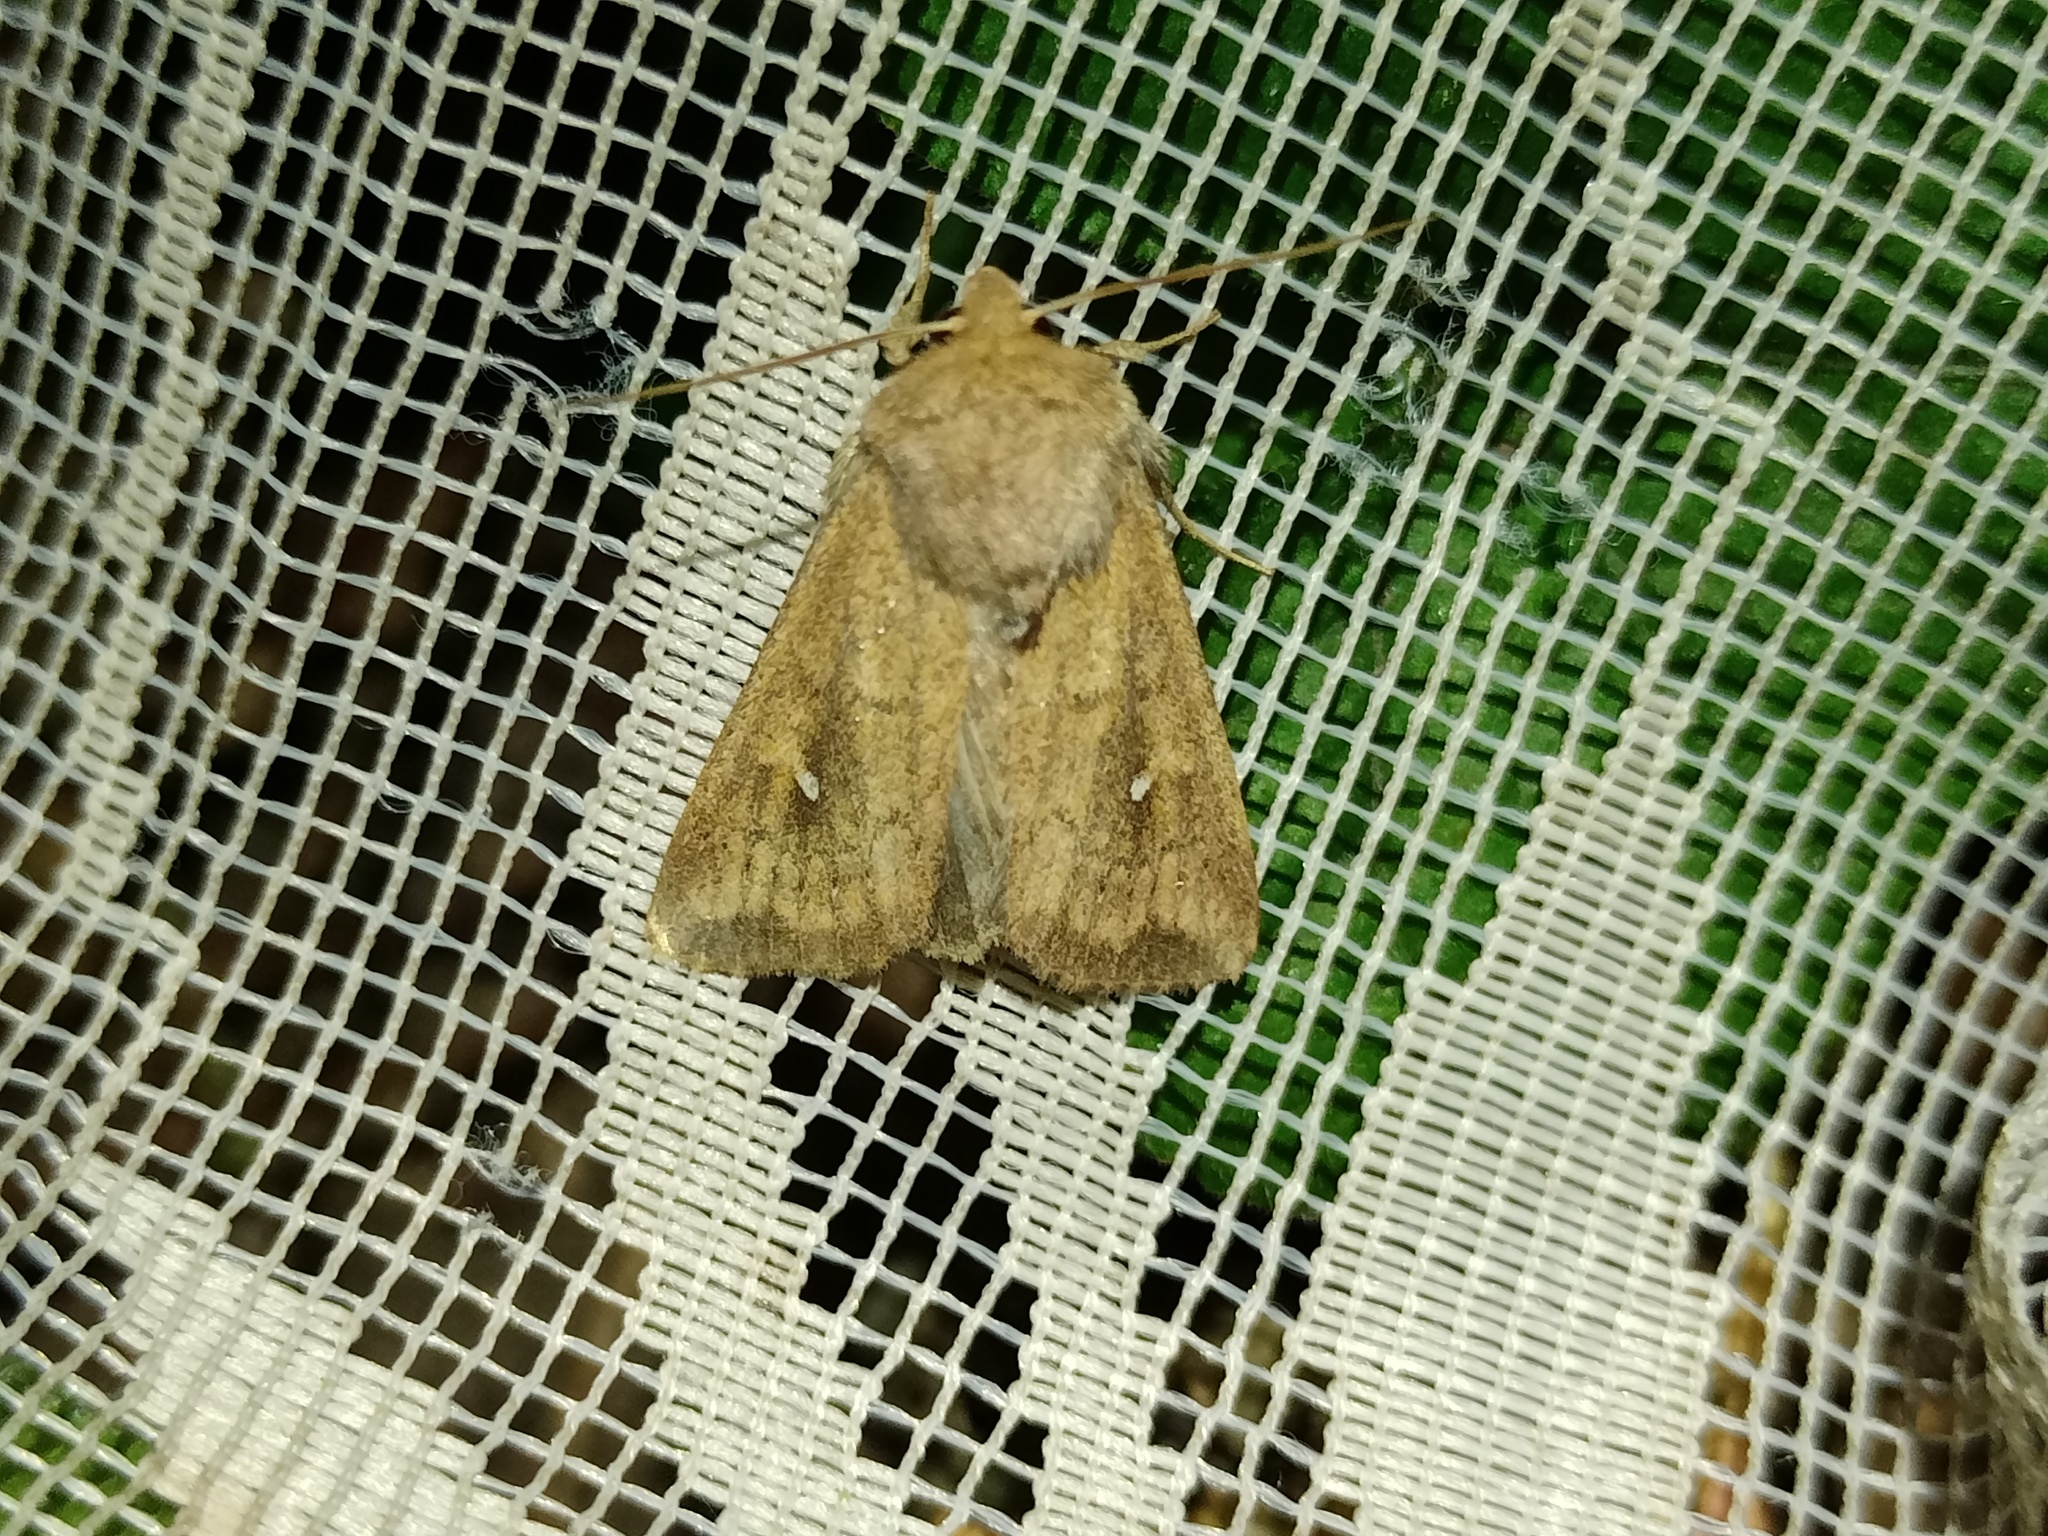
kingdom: Animalia
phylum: Arthropoda
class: Insecta
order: Lepidoptera
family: Noctuidae
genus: Mythimna
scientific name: Mythimna albipuncta
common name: White-point
